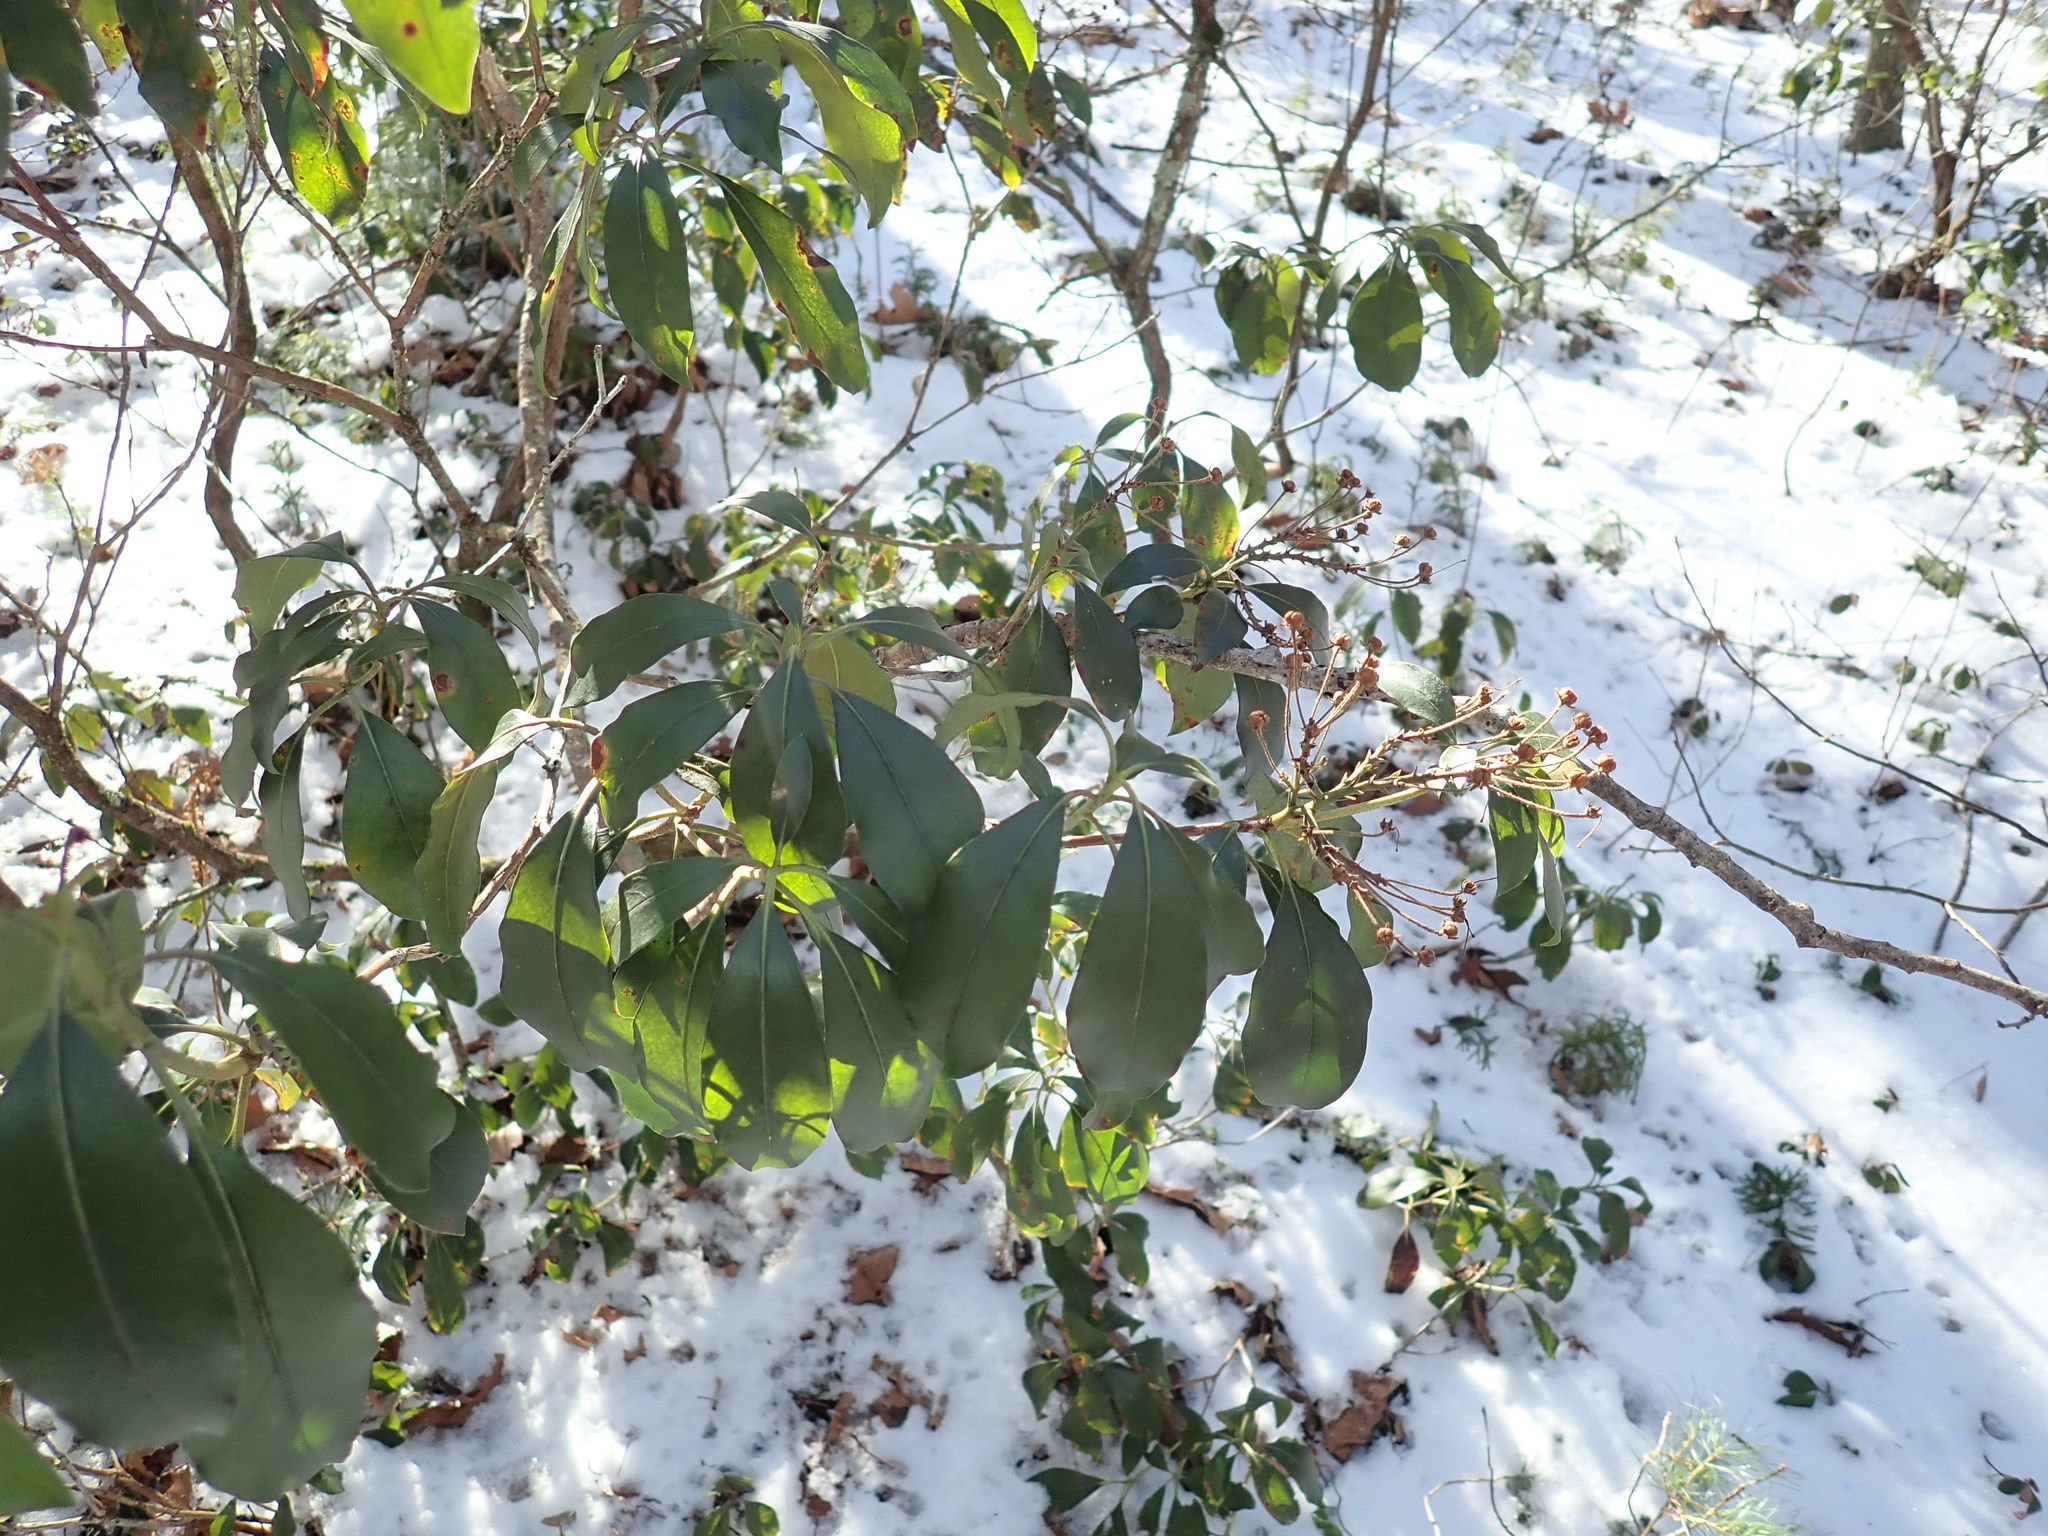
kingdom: Plantae
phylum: Tracheophyta
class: Magnoliopsida
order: Ericales
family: Ericaceae
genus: Kalmia
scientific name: Kalmia latifolia
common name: Mountain-laurel
